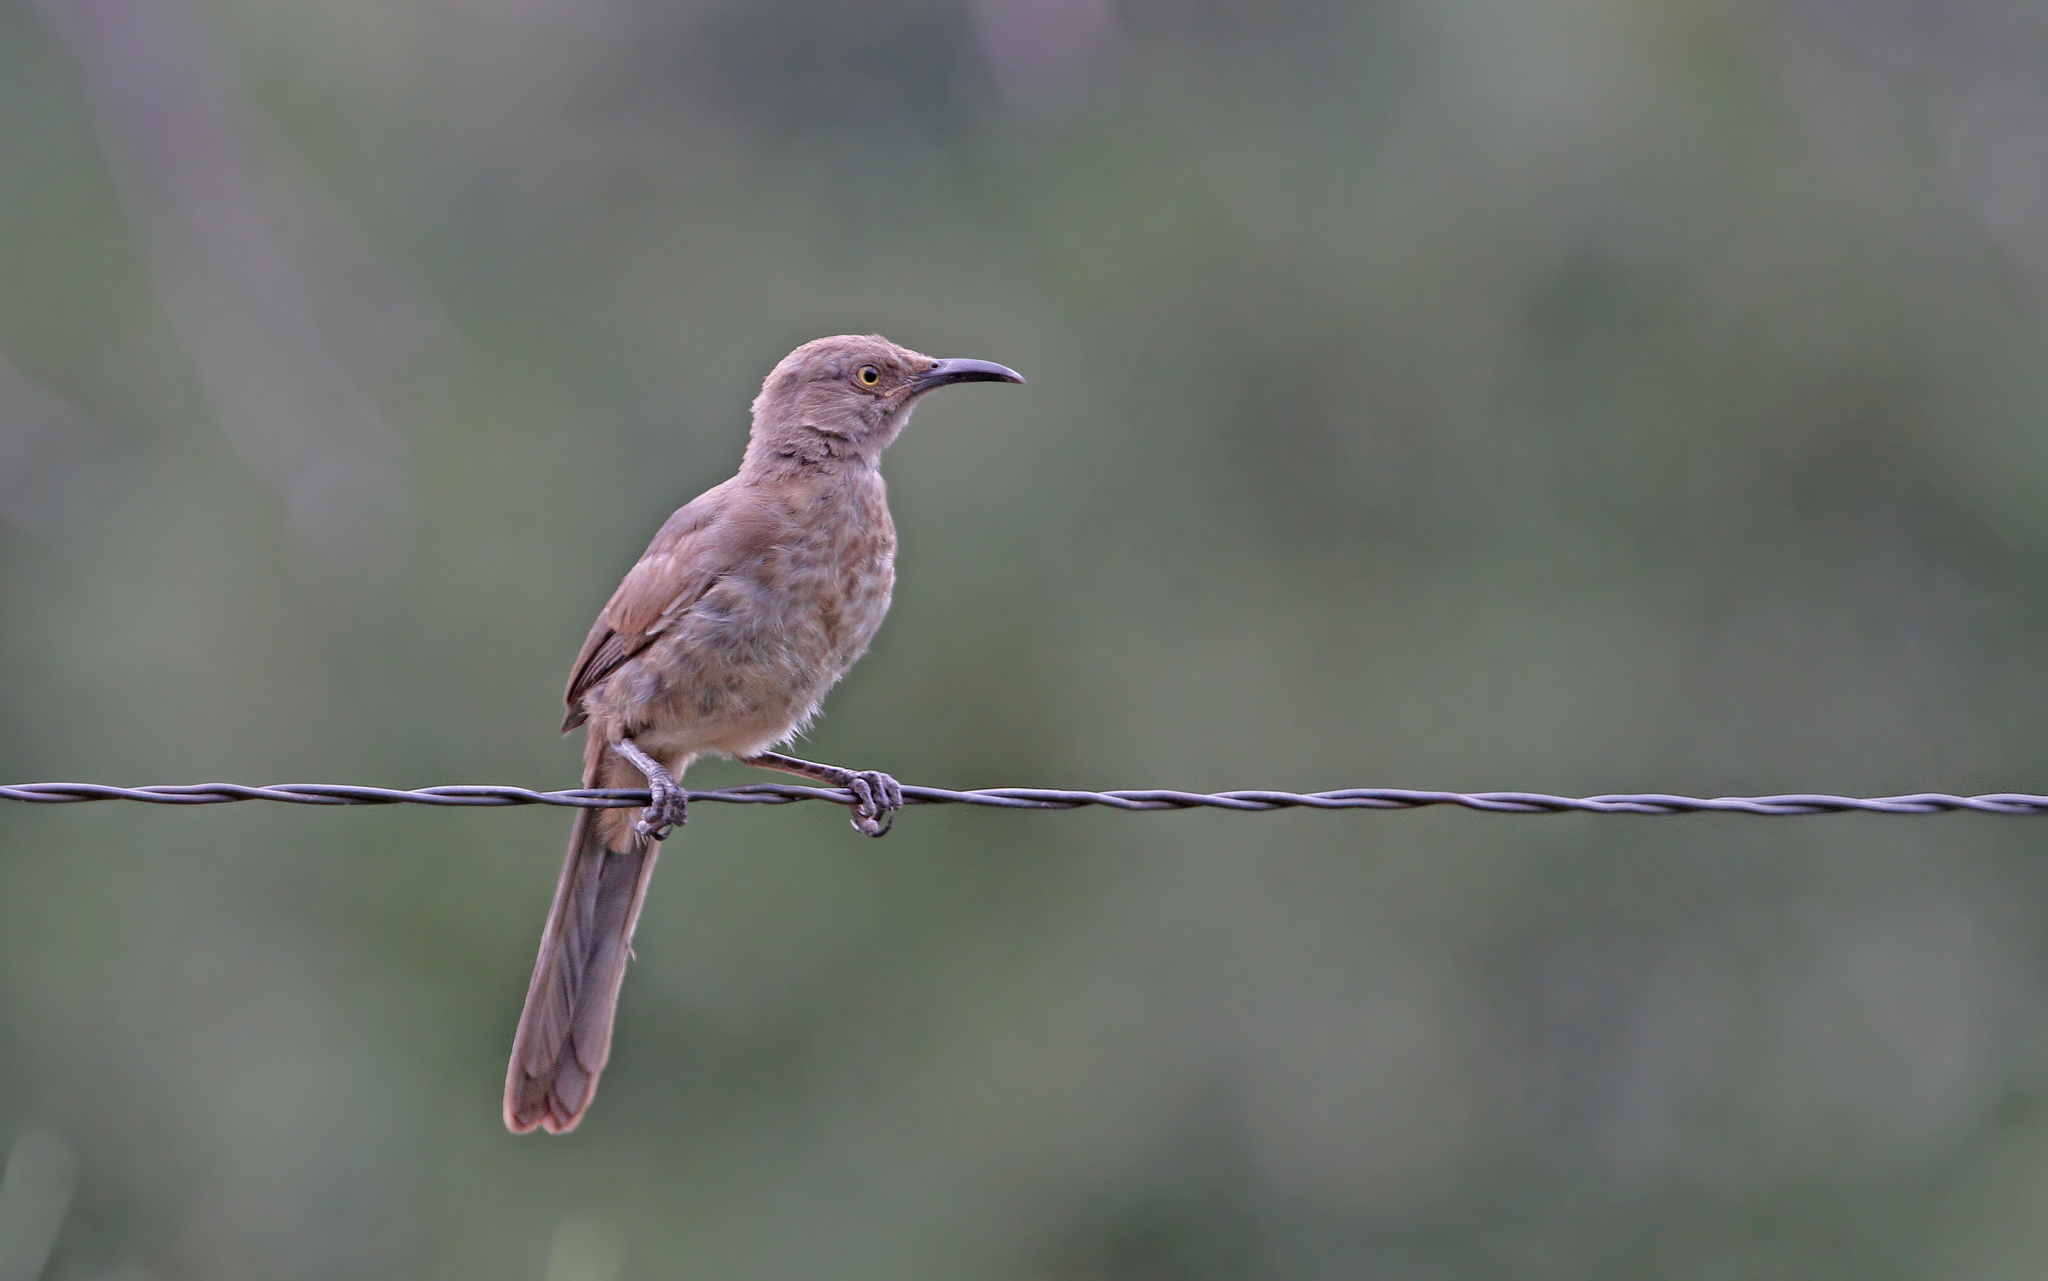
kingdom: Animalia
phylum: Chordata
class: Aves
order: Passeriformes
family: Mimidae
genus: Toxostoma
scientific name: Toxostoma curvirostre
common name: Curve-billed thrasher
